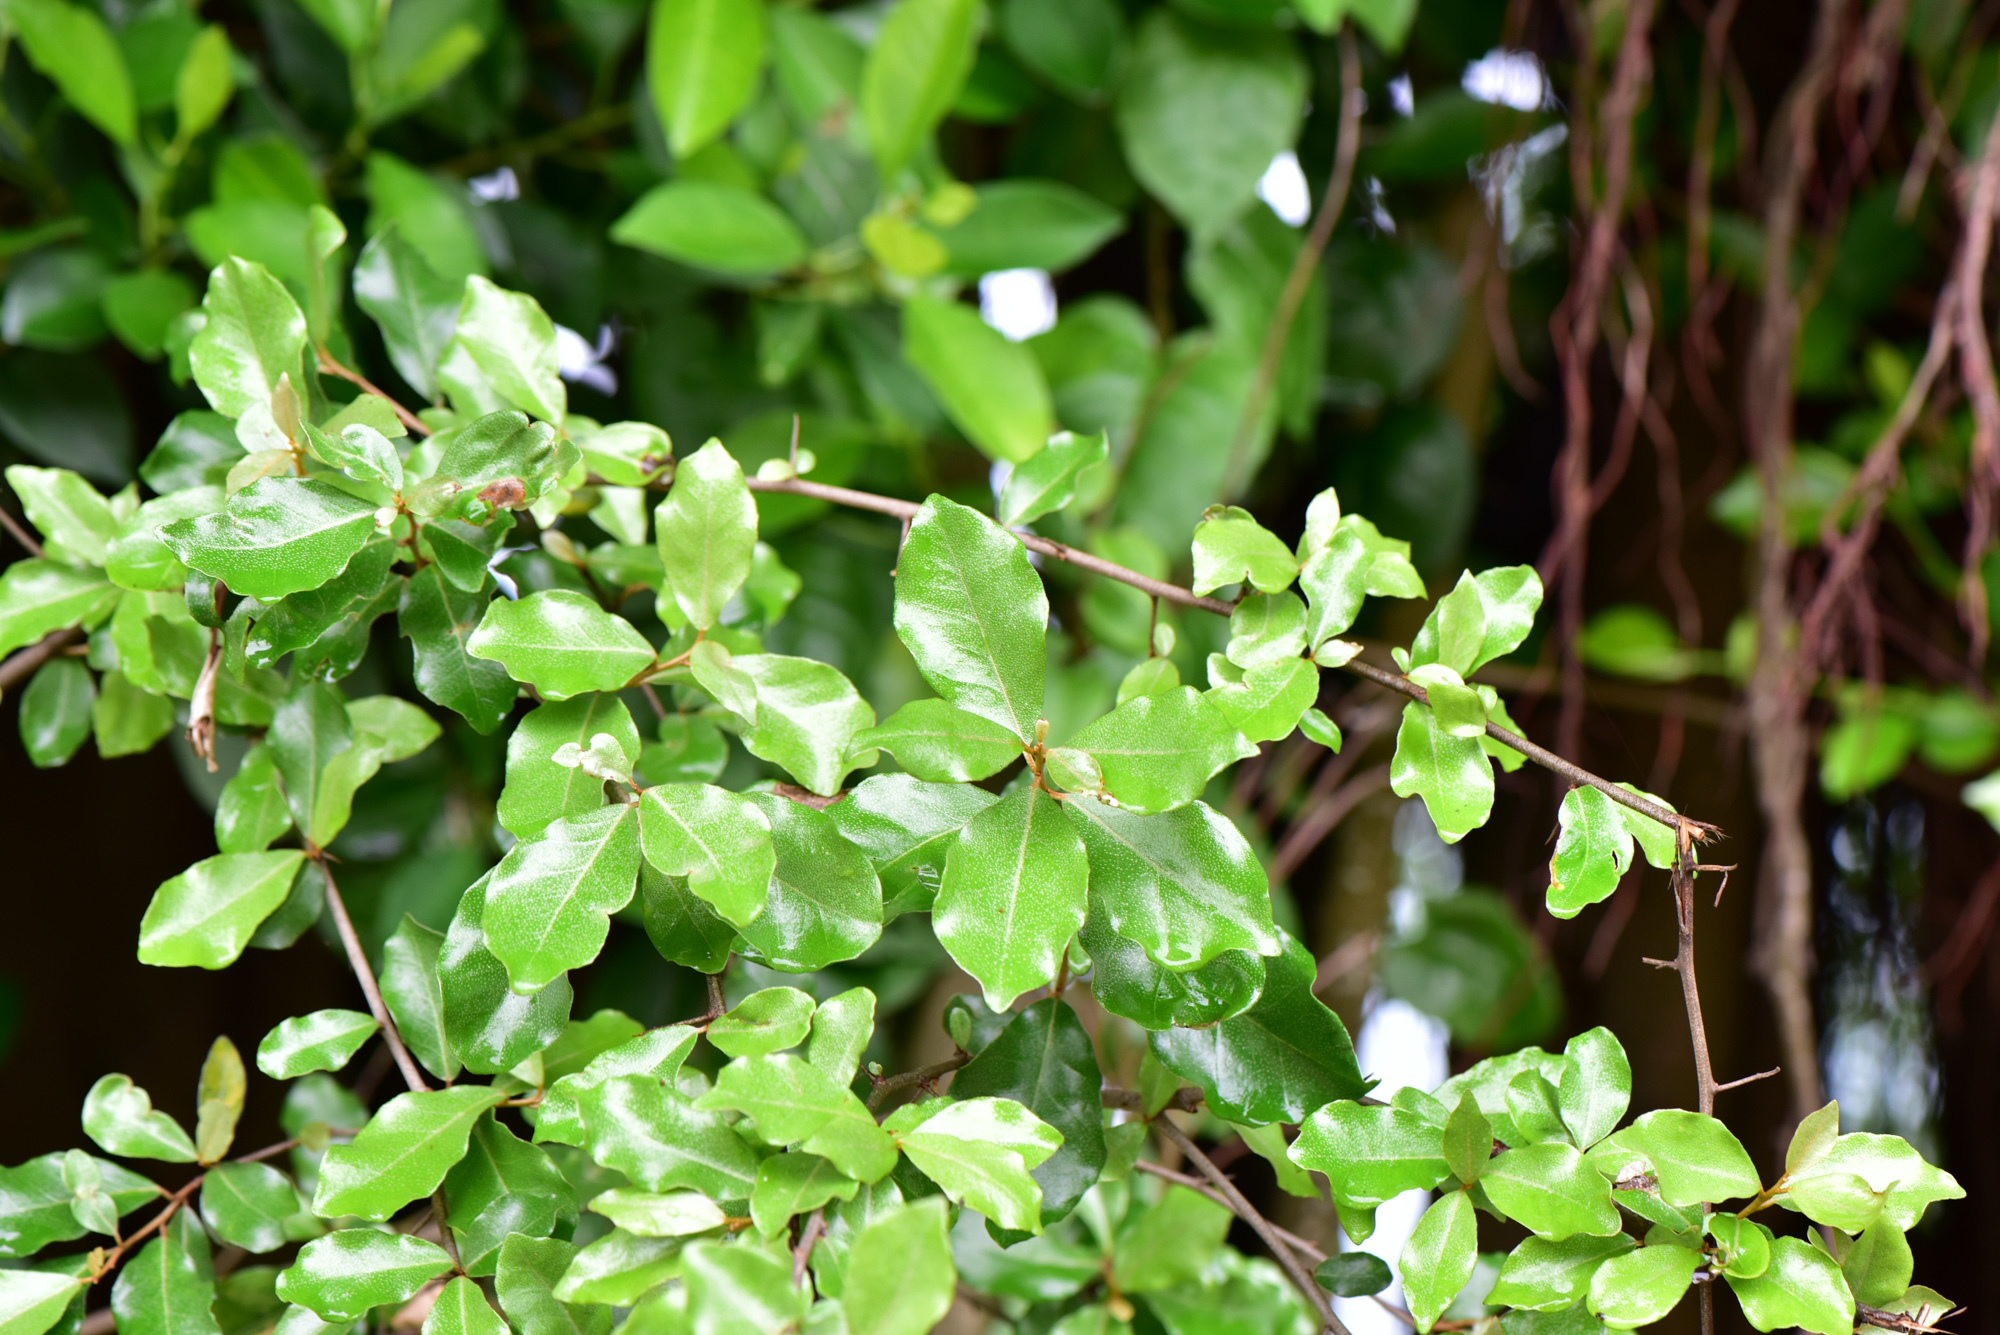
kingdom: Plantae
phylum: Tracheophyta
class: Magnoliopsida
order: Rosales
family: Elaeagnaceae
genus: Elaeagnus
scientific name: Elaeagnus oldhamii
